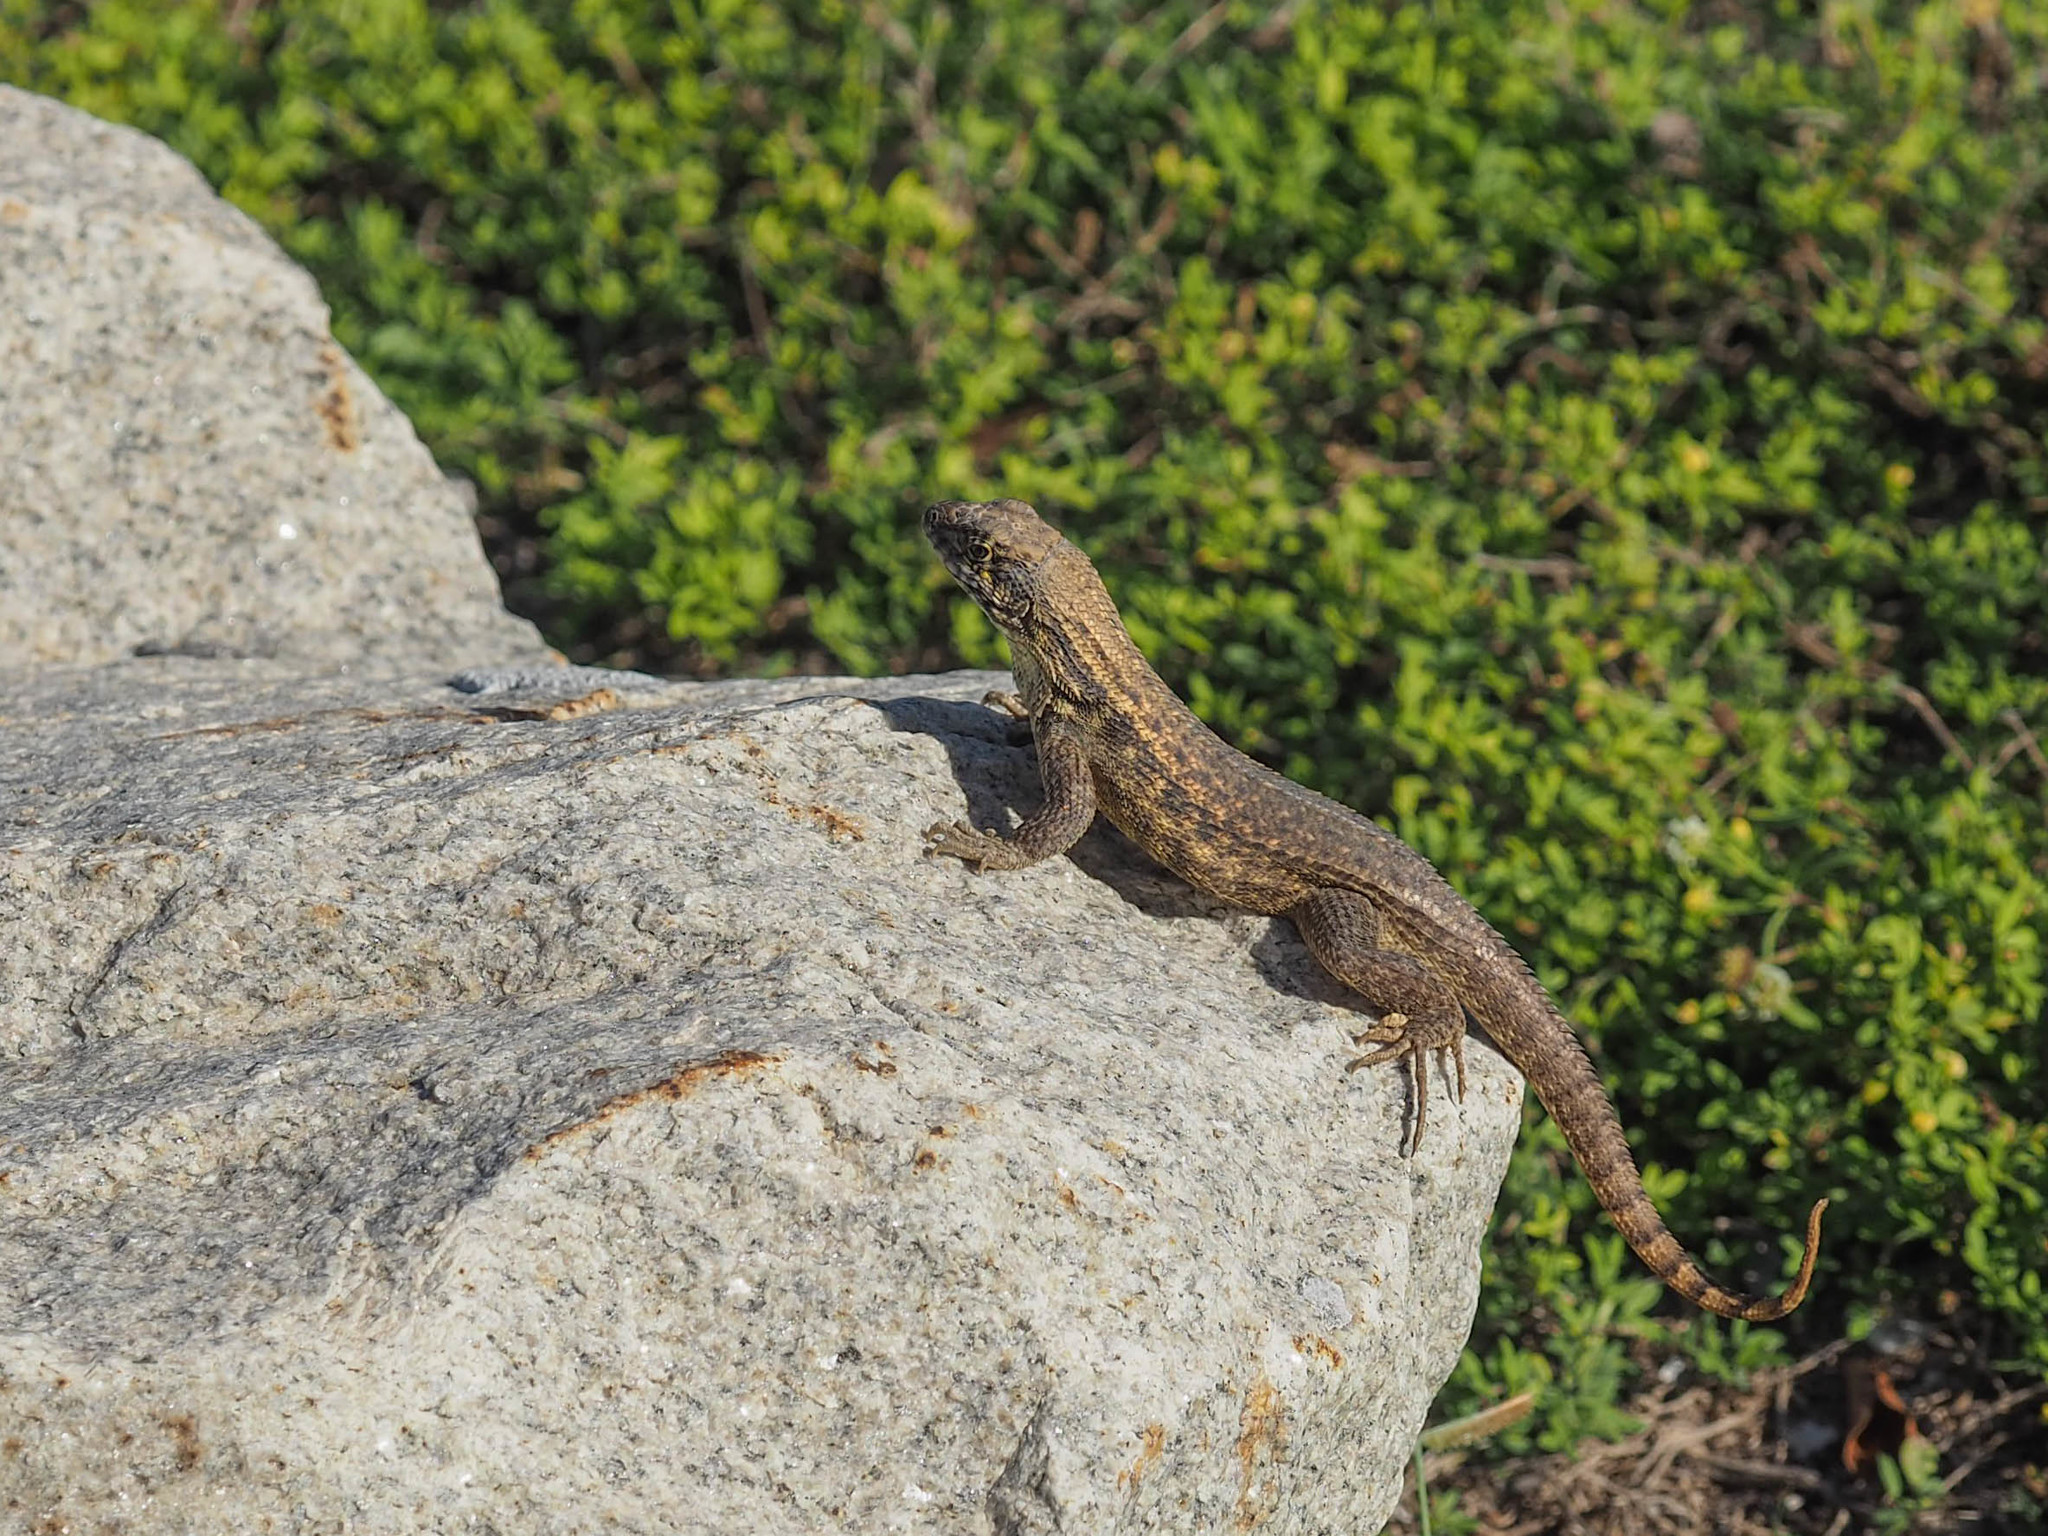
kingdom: Animalia
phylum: Chordata
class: Squamata
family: Leiocephalidae
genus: Leiocephalus
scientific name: Leiocephalus carinatus
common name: Northern curly-tailed lizard
